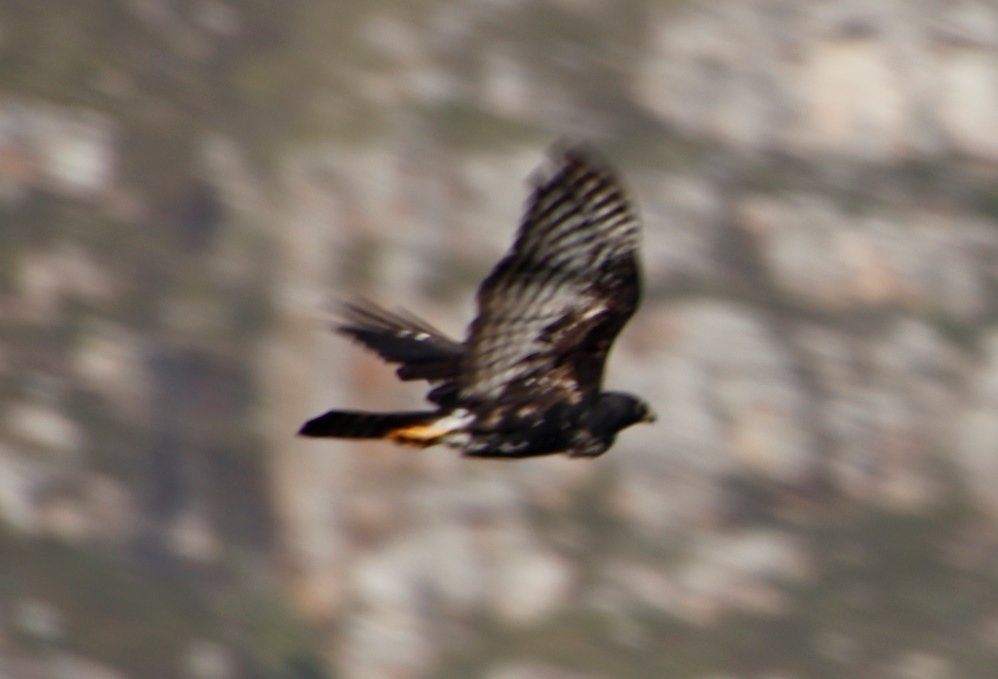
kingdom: Animalia
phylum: Chordata
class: Aves
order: Accipitriformes
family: Accipitridae
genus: Accipiter
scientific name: Accipiter melanoleucus
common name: Black sparrowhawk
